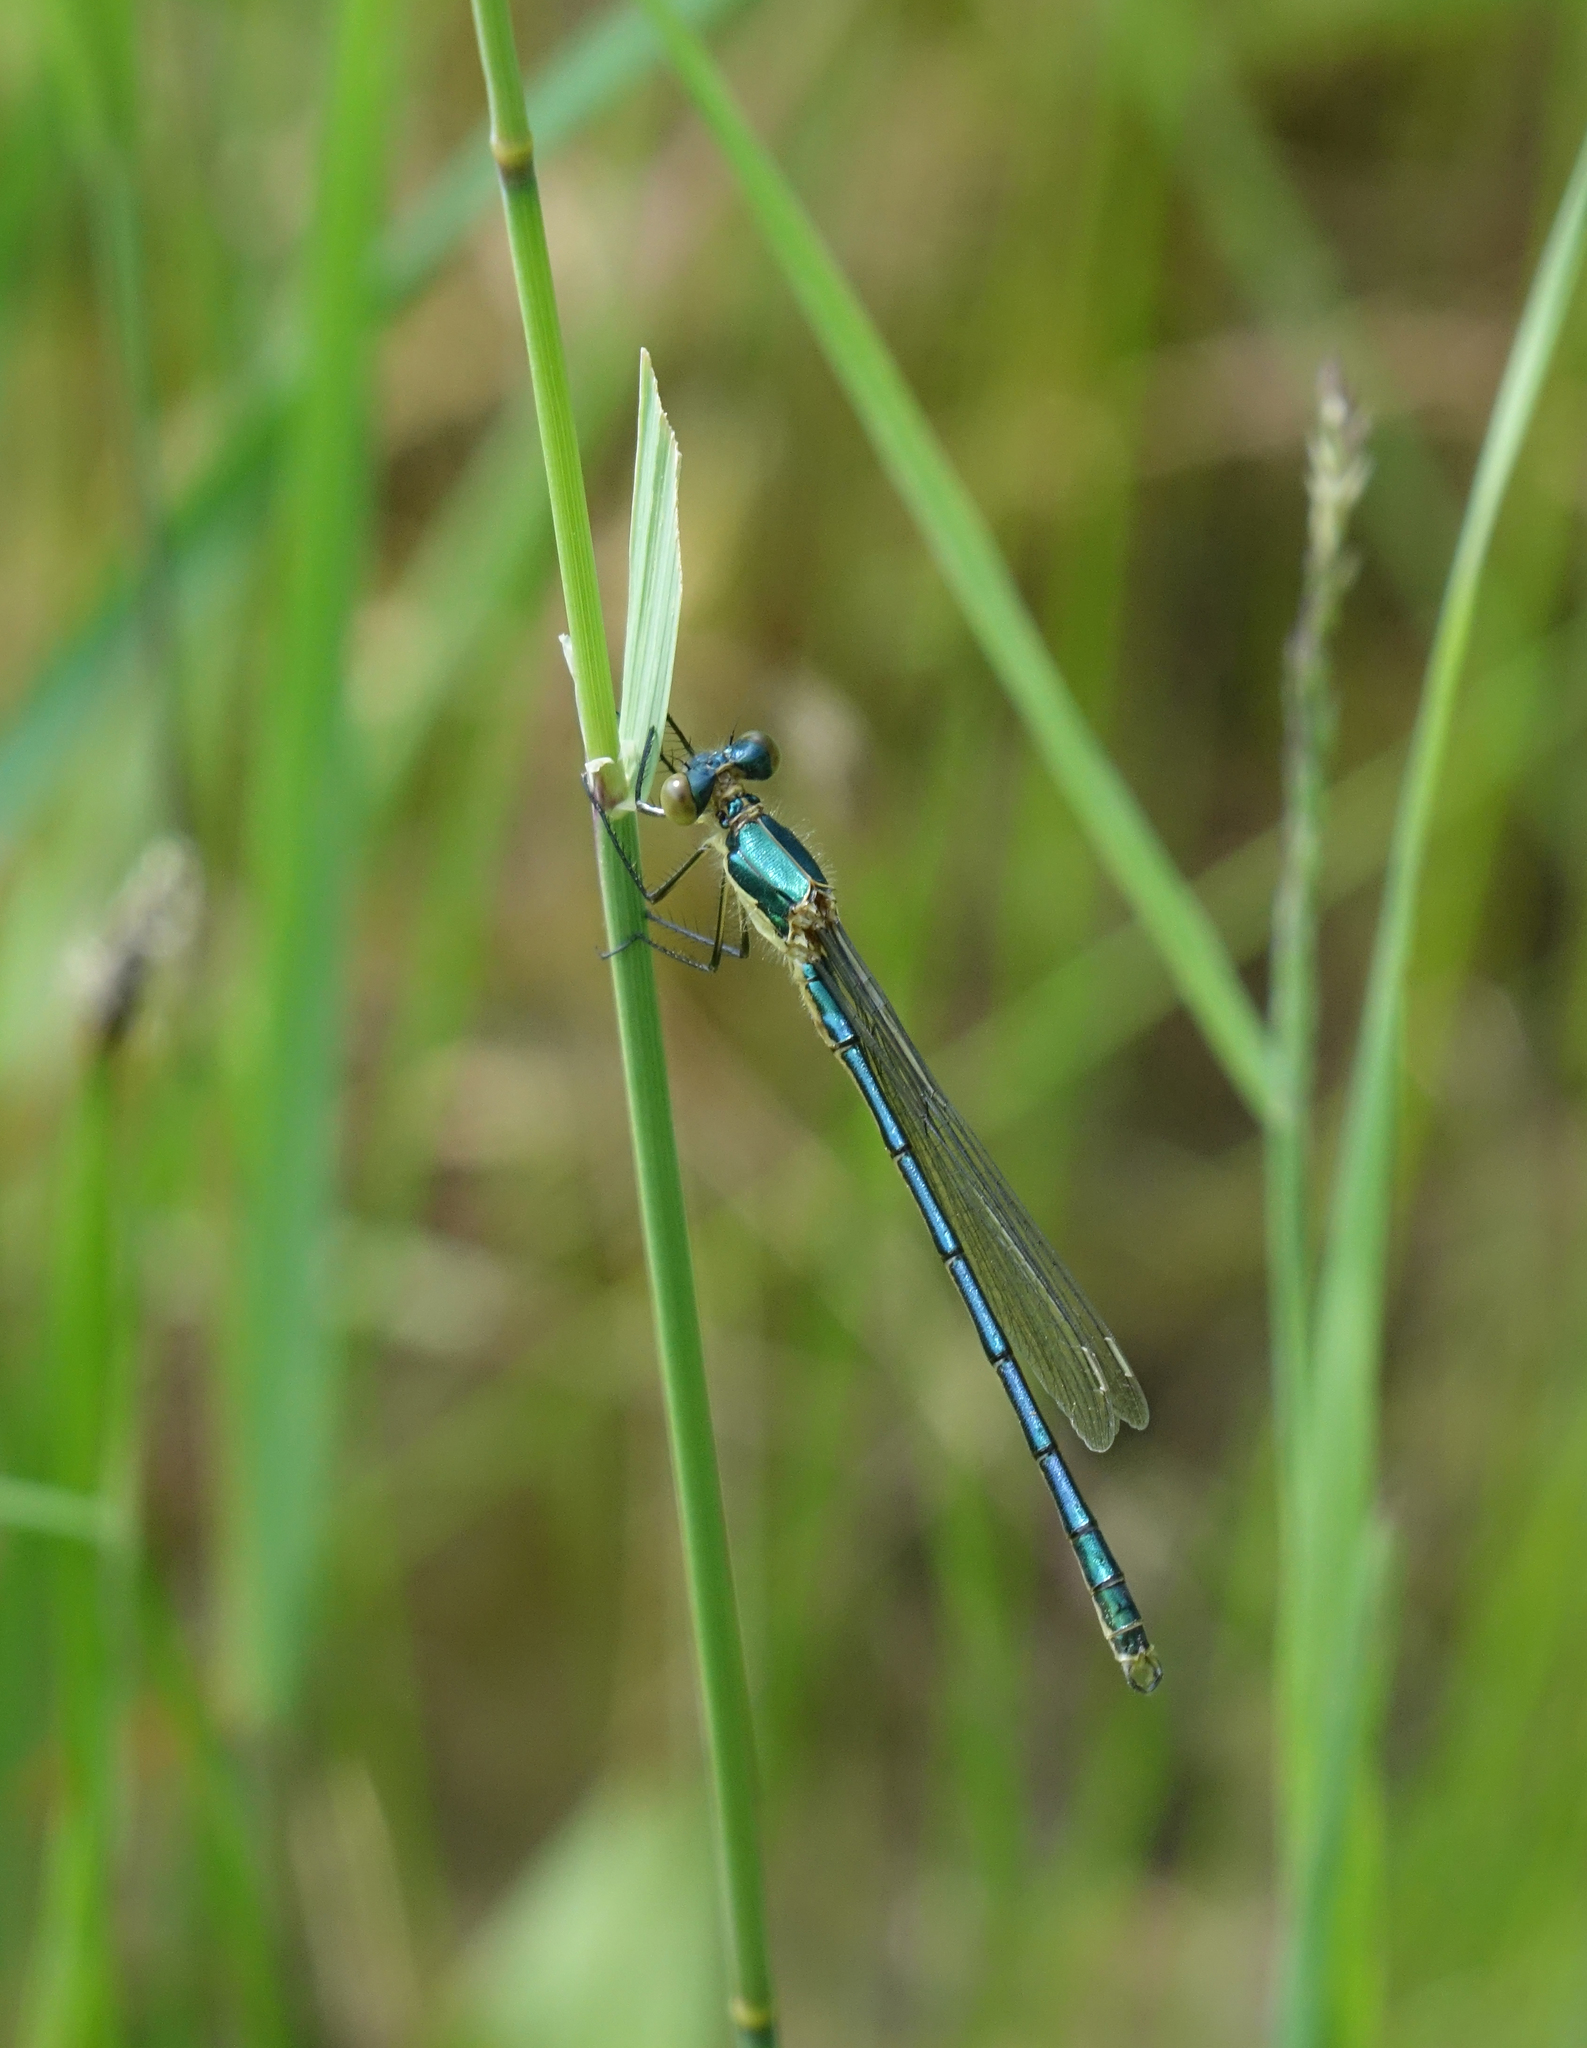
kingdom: Animalia
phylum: Arthropoda
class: Insecta
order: Odonata
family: Lestidae
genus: Lestes
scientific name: Lestes dryas
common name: Scarce emerald damselfly
